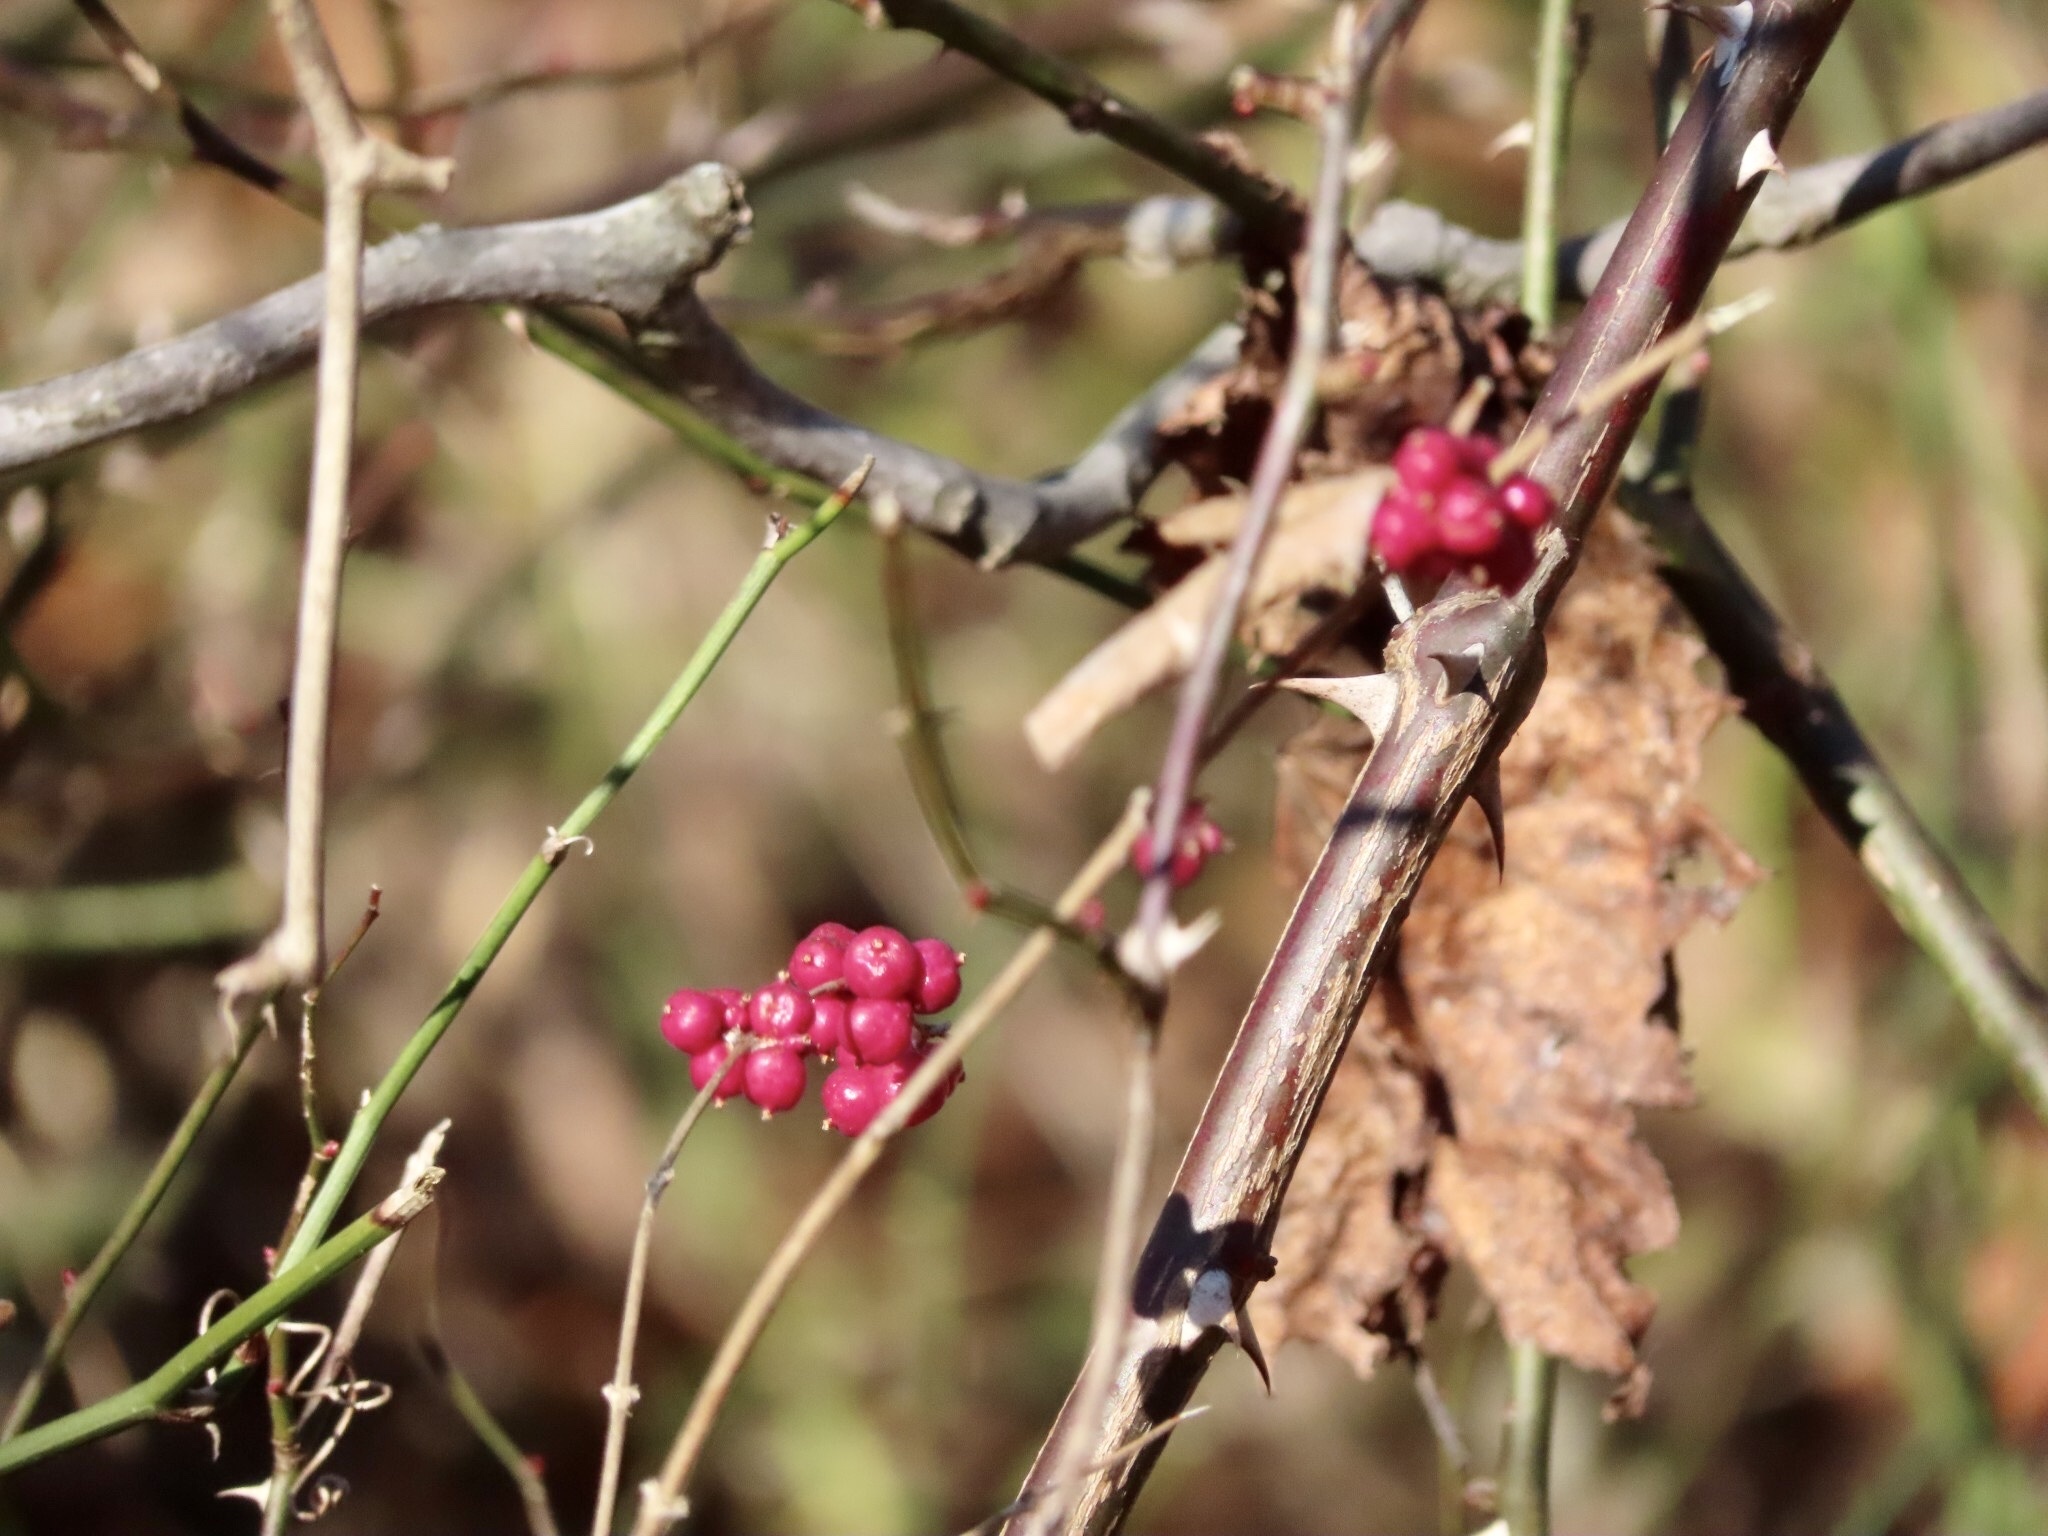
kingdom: Plantae
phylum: Tracheophyta
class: Magnoliopsida
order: Dipsacales
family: Caprifoliaceae
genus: Symphoricarpos
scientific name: Symphoricarpos orbiculatus
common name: Coralberry
